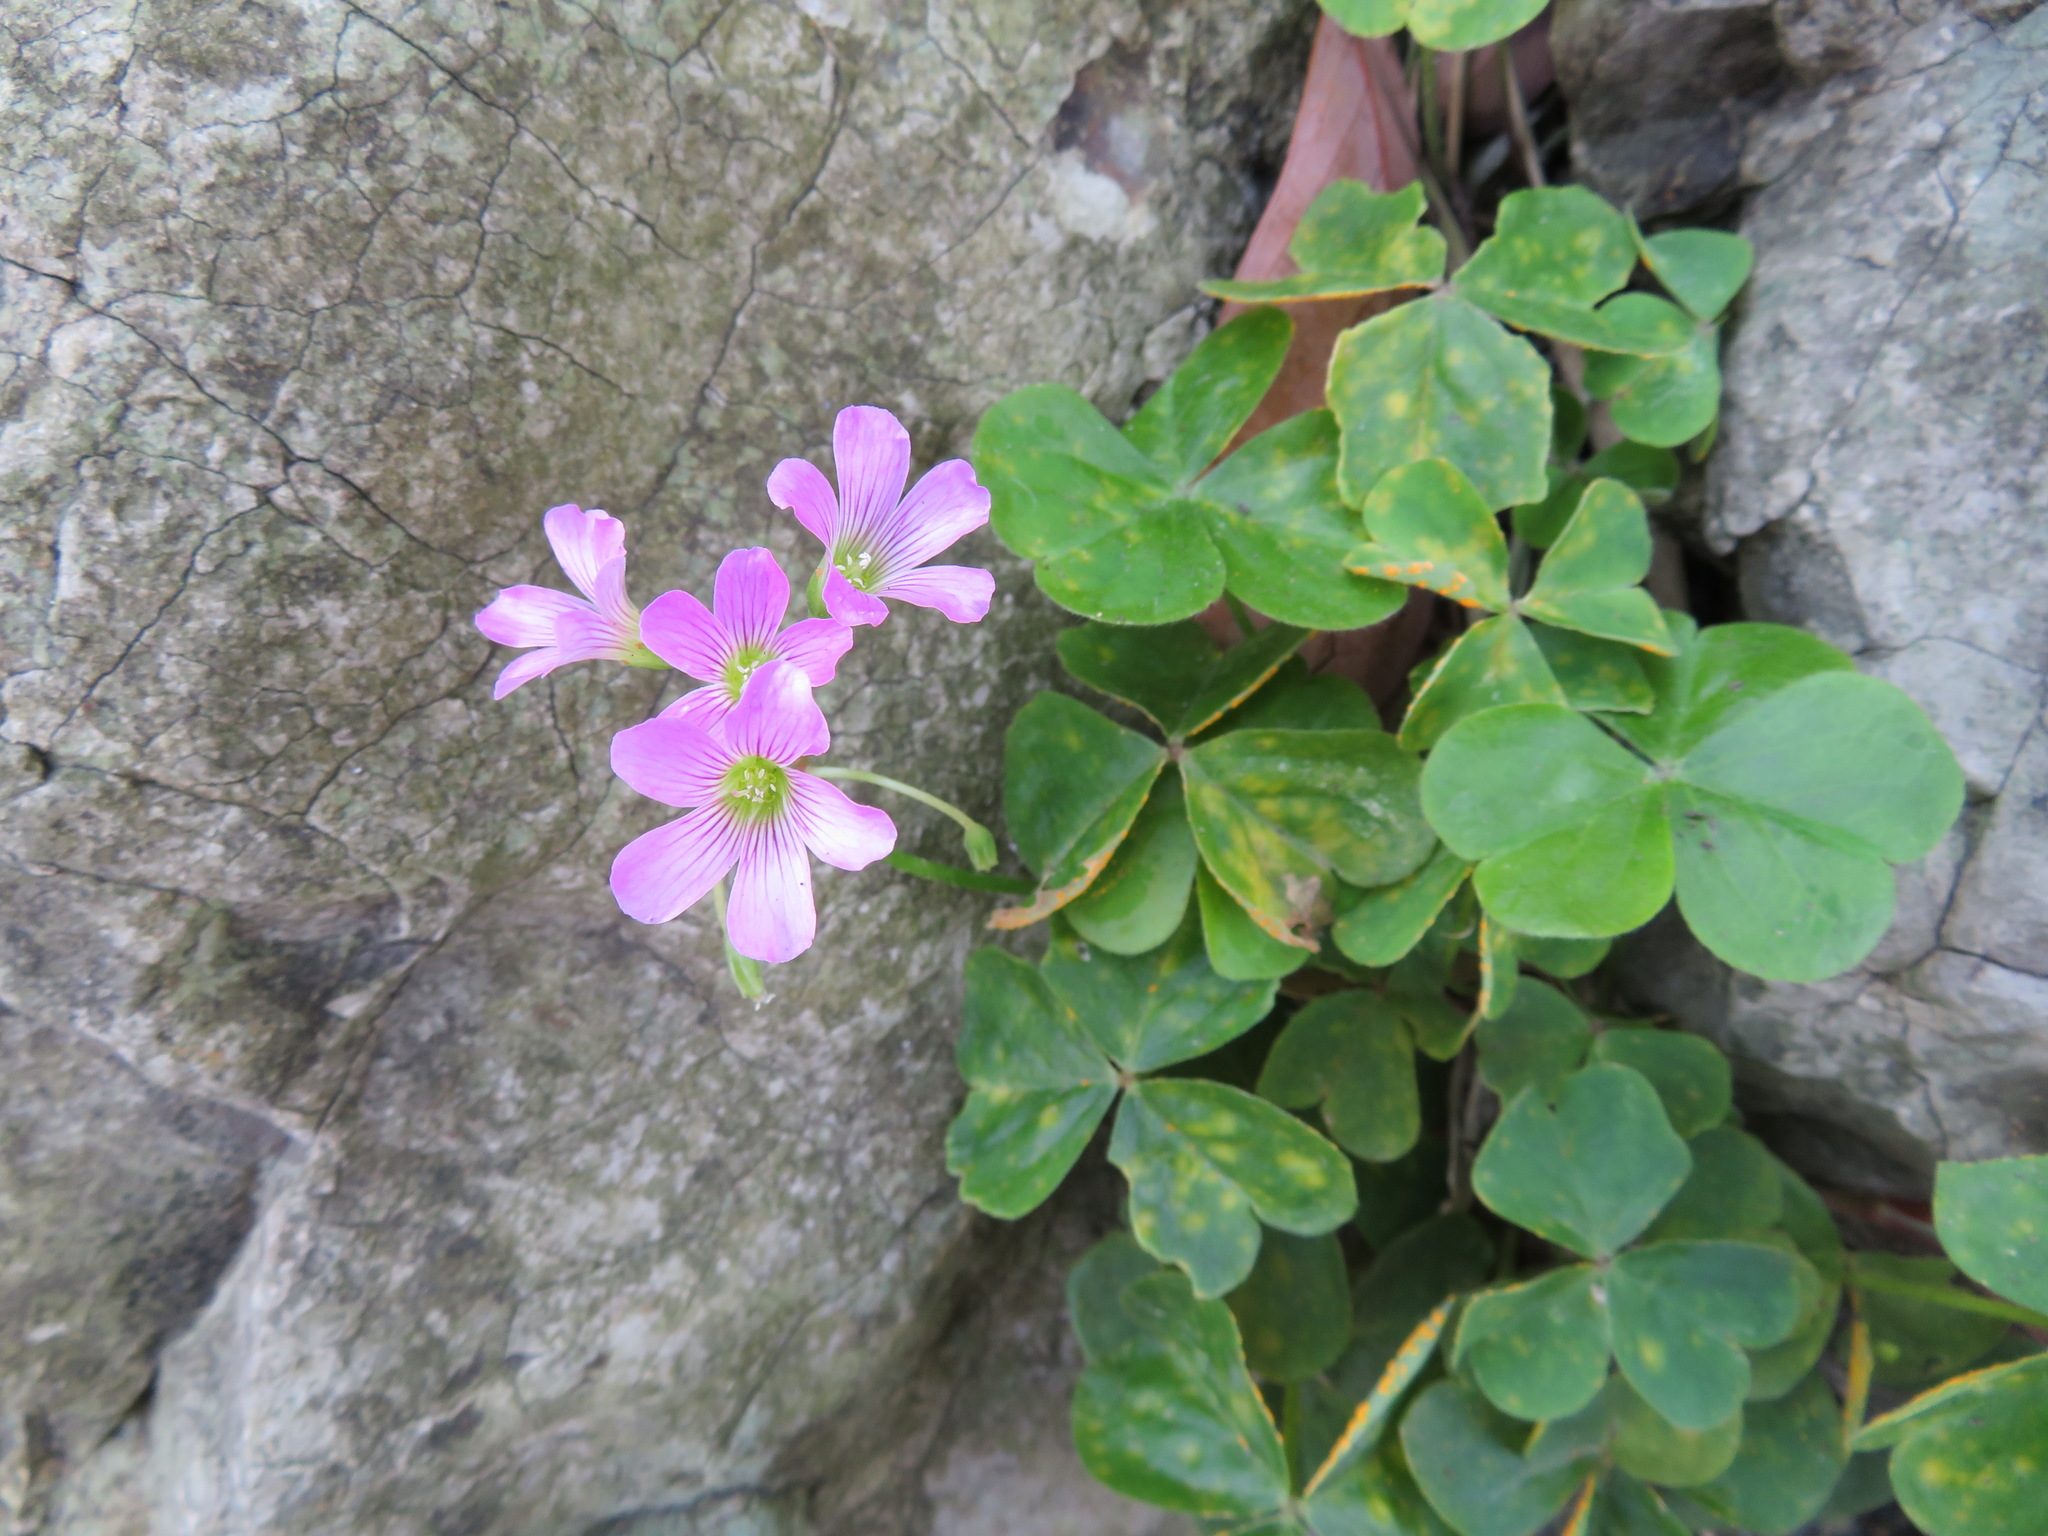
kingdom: Plantae
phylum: Tracheophyta
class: Magnoliopsida
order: Oxalidales
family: Oxalidaceae
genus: Oxalis
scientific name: Oxalis debilis
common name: Large-flowered pink-sorrel
